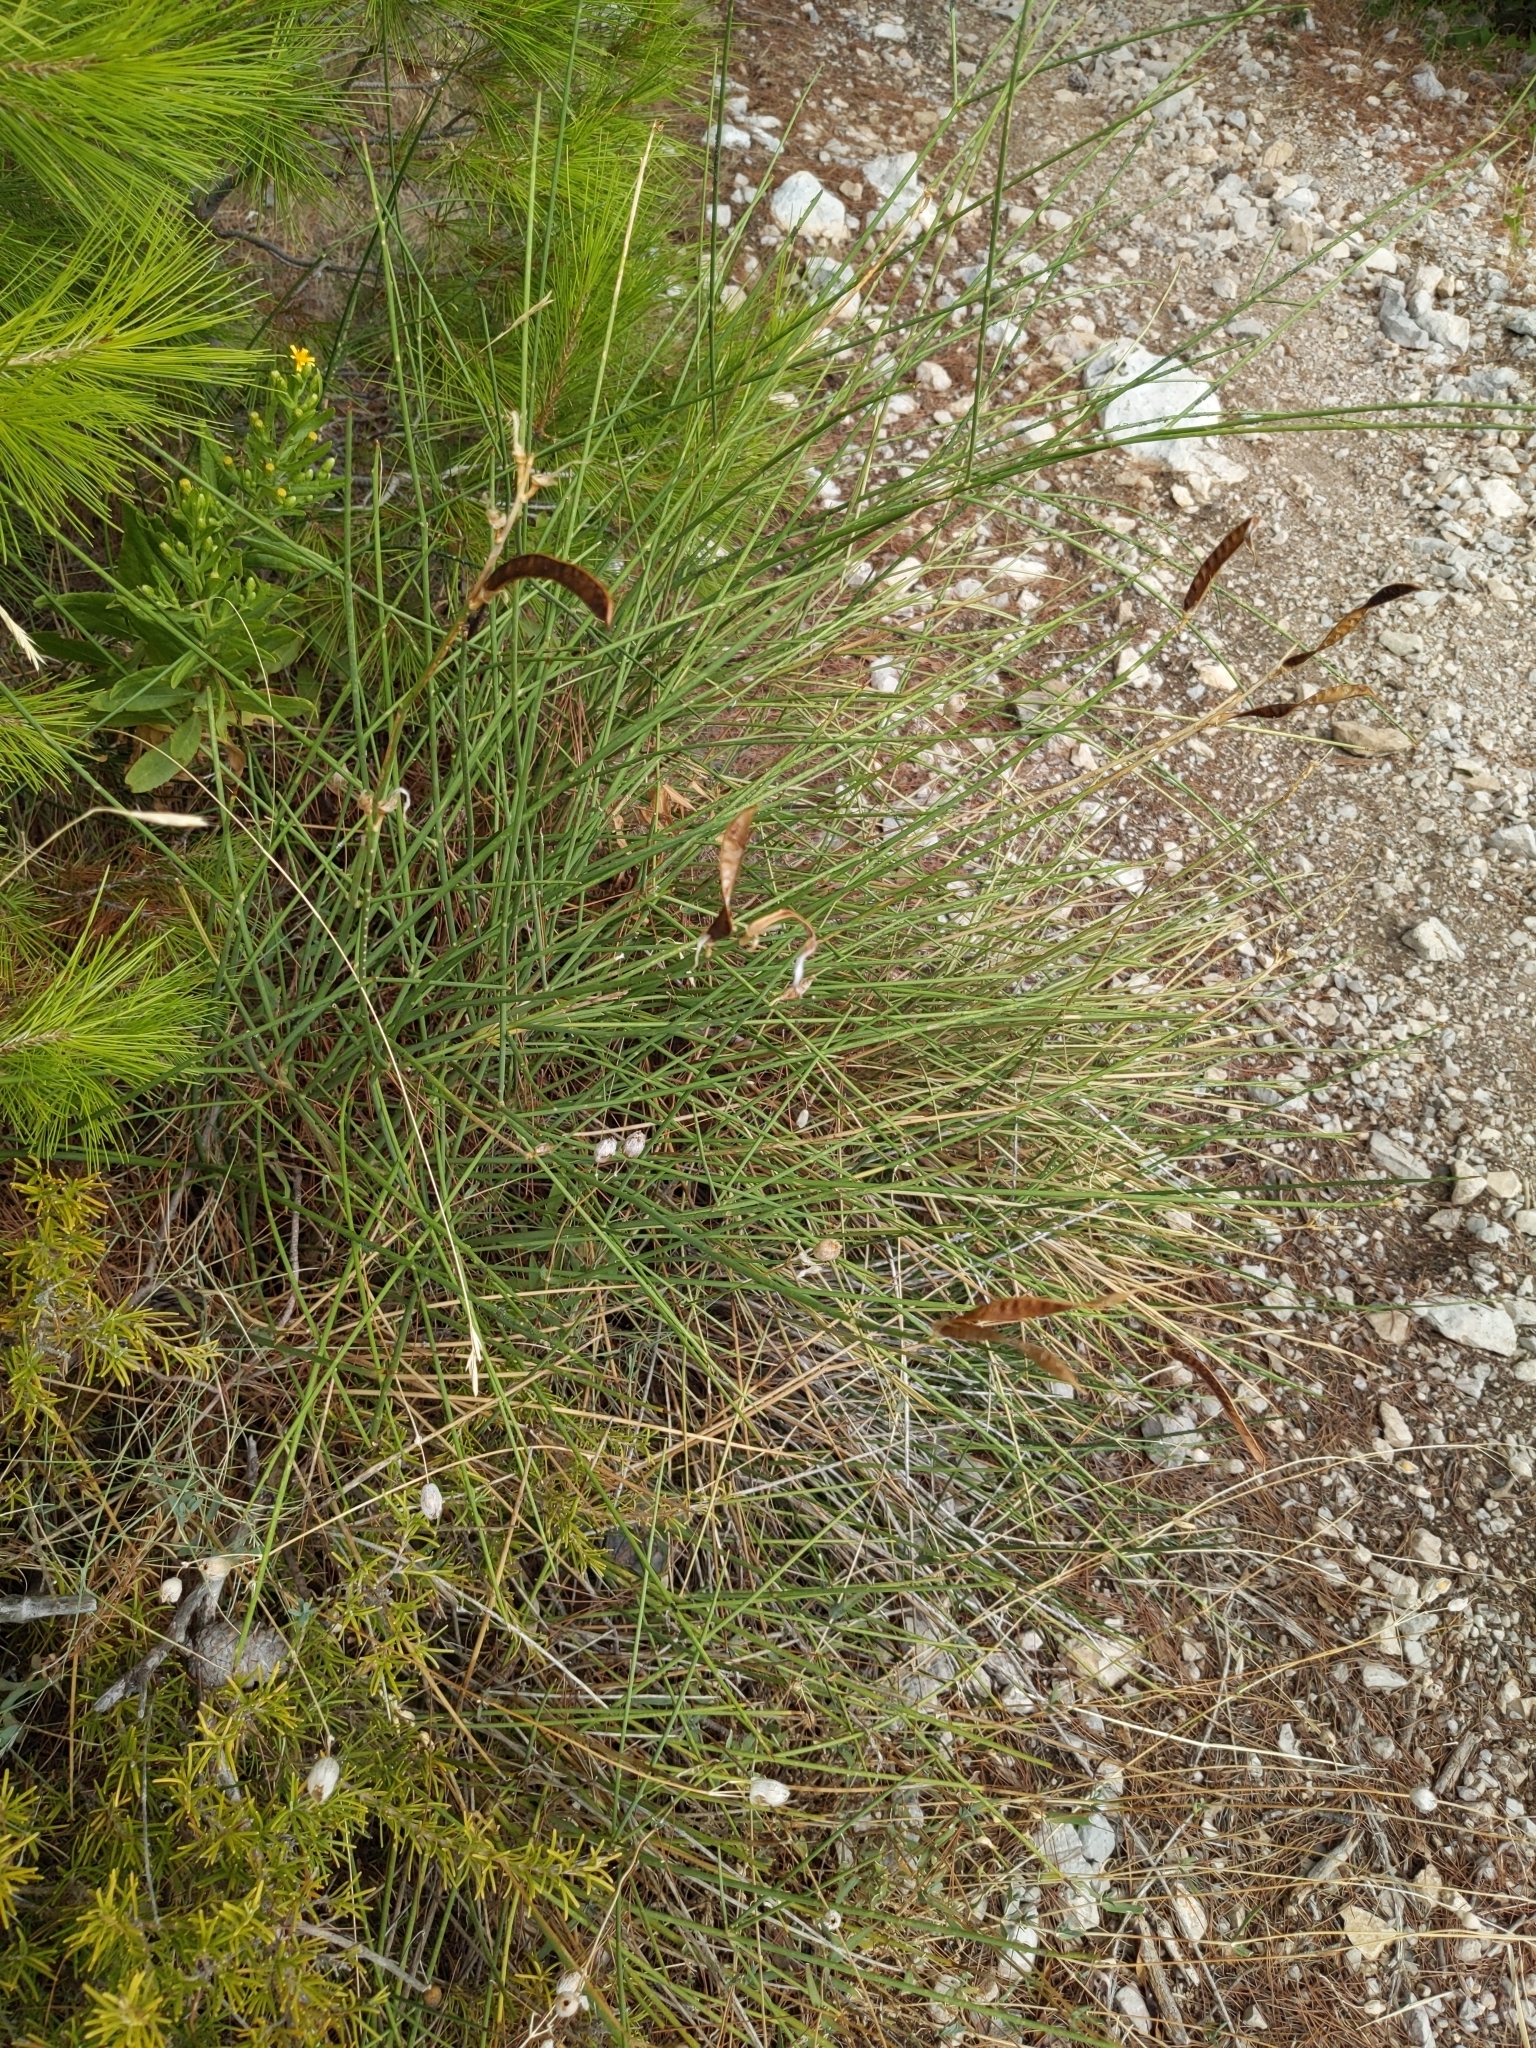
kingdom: Plantae
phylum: Tracheophyta
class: Magnoliopsida
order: Fabales
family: Fabaceae
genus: Spartium
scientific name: Spartium junceum
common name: Spanish broom
